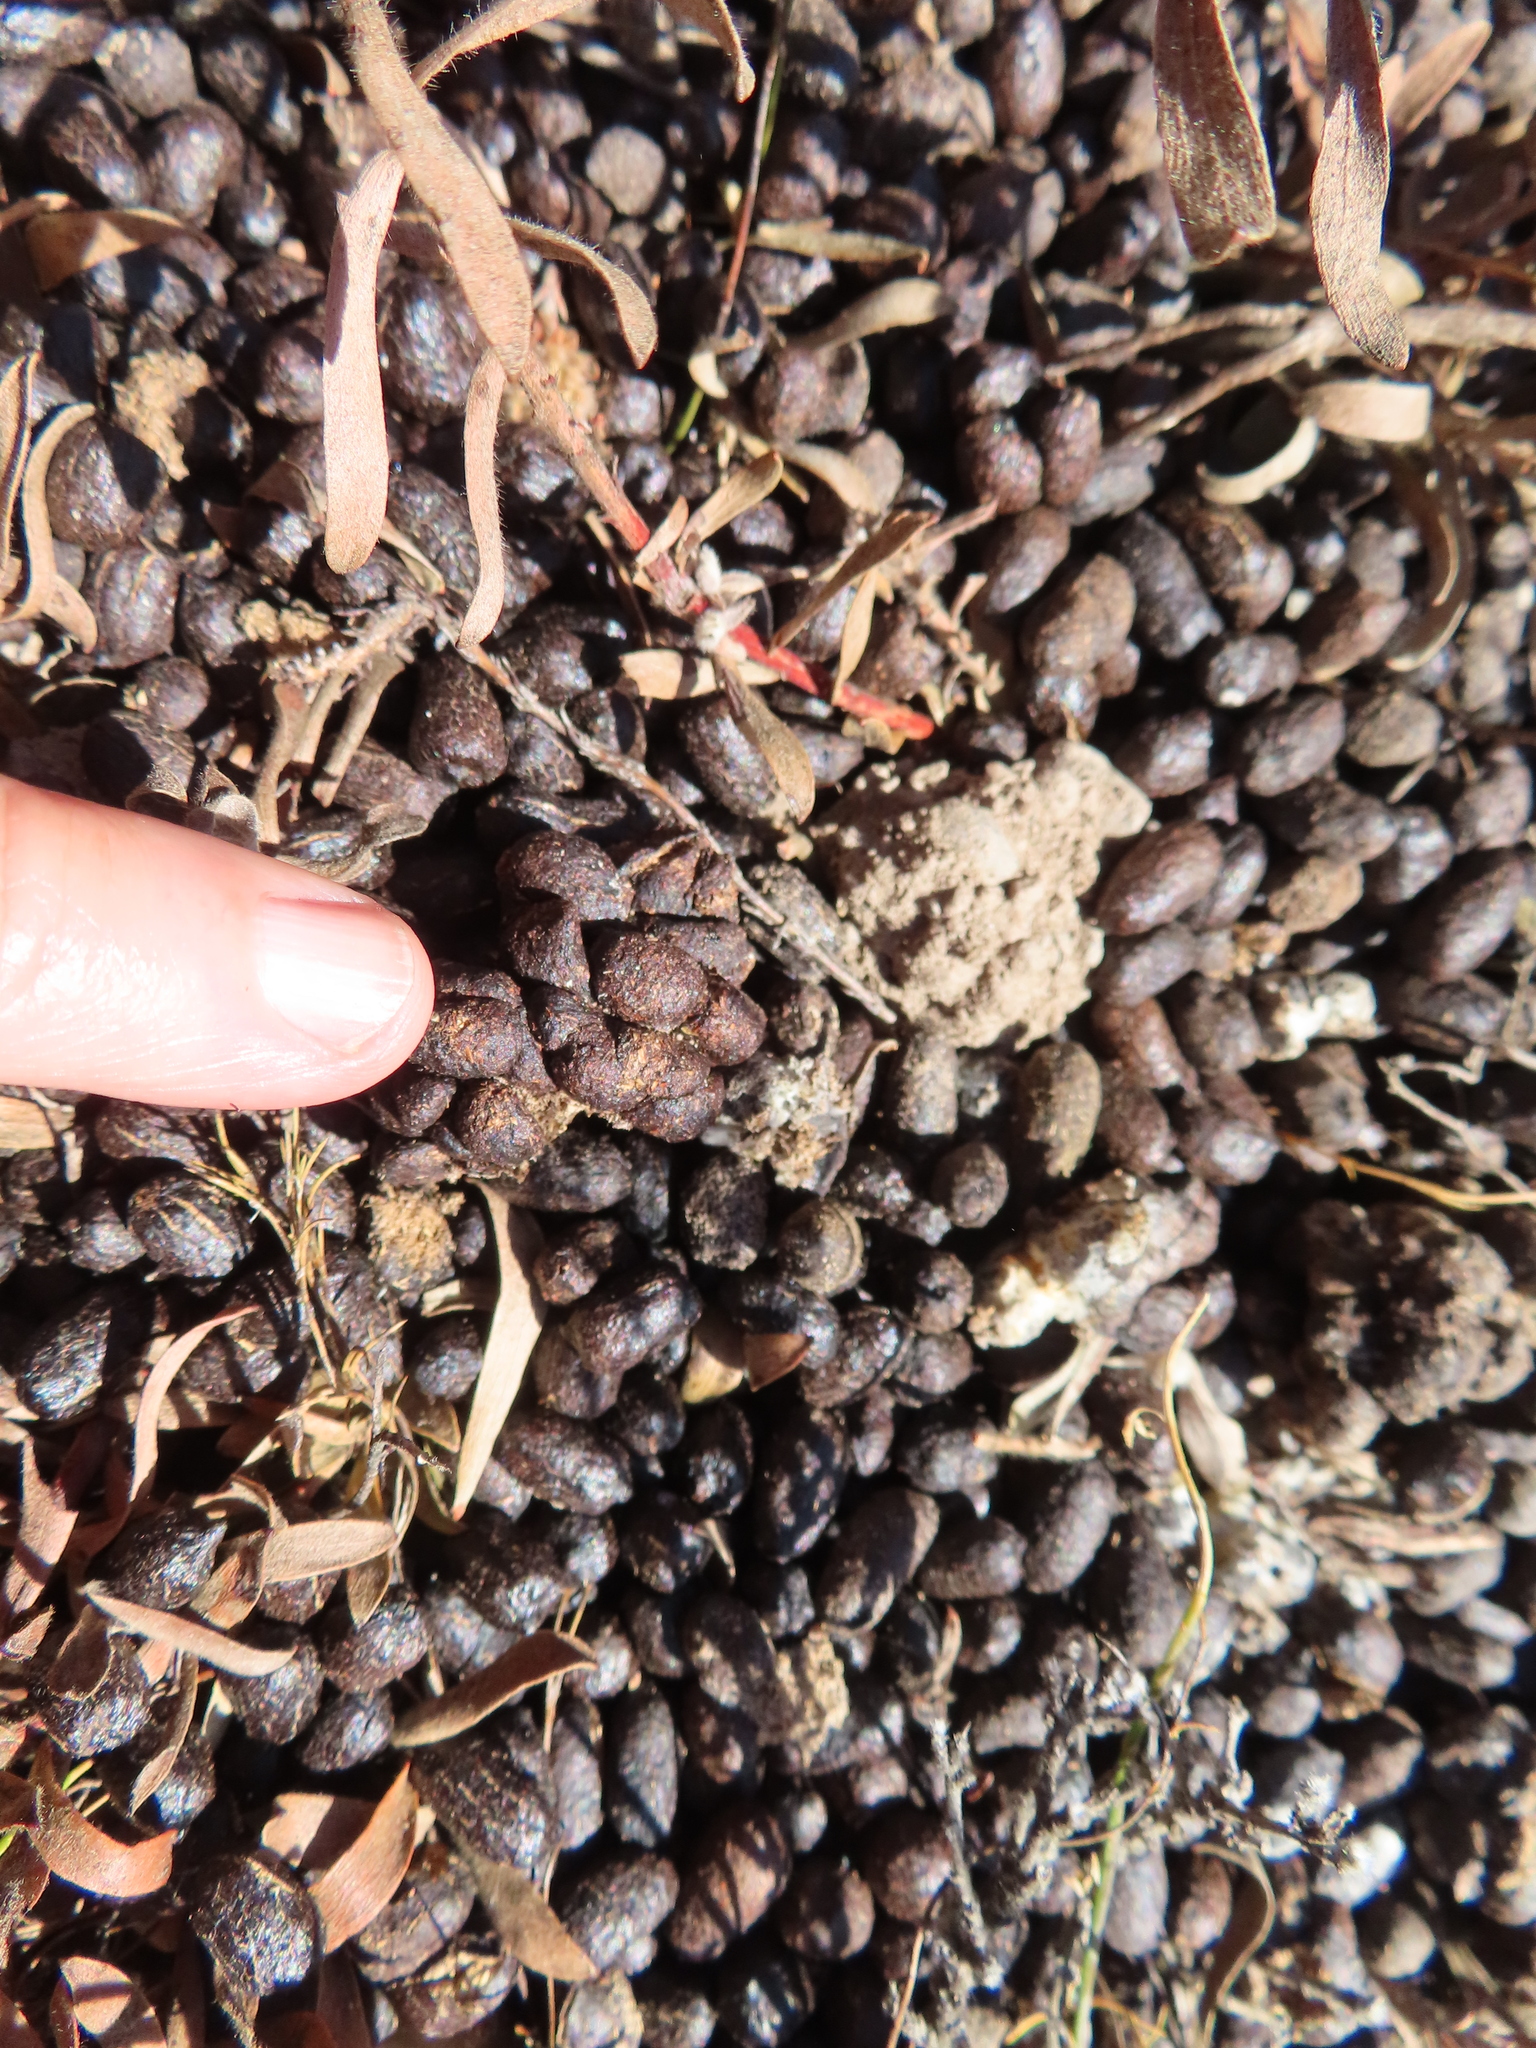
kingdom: Animalia
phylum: Chordata
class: Mammalia
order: Artiodactyla
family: Bovidae
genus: Raphicerus
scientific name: Raphicerus melanotis
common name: Cape grysbok
